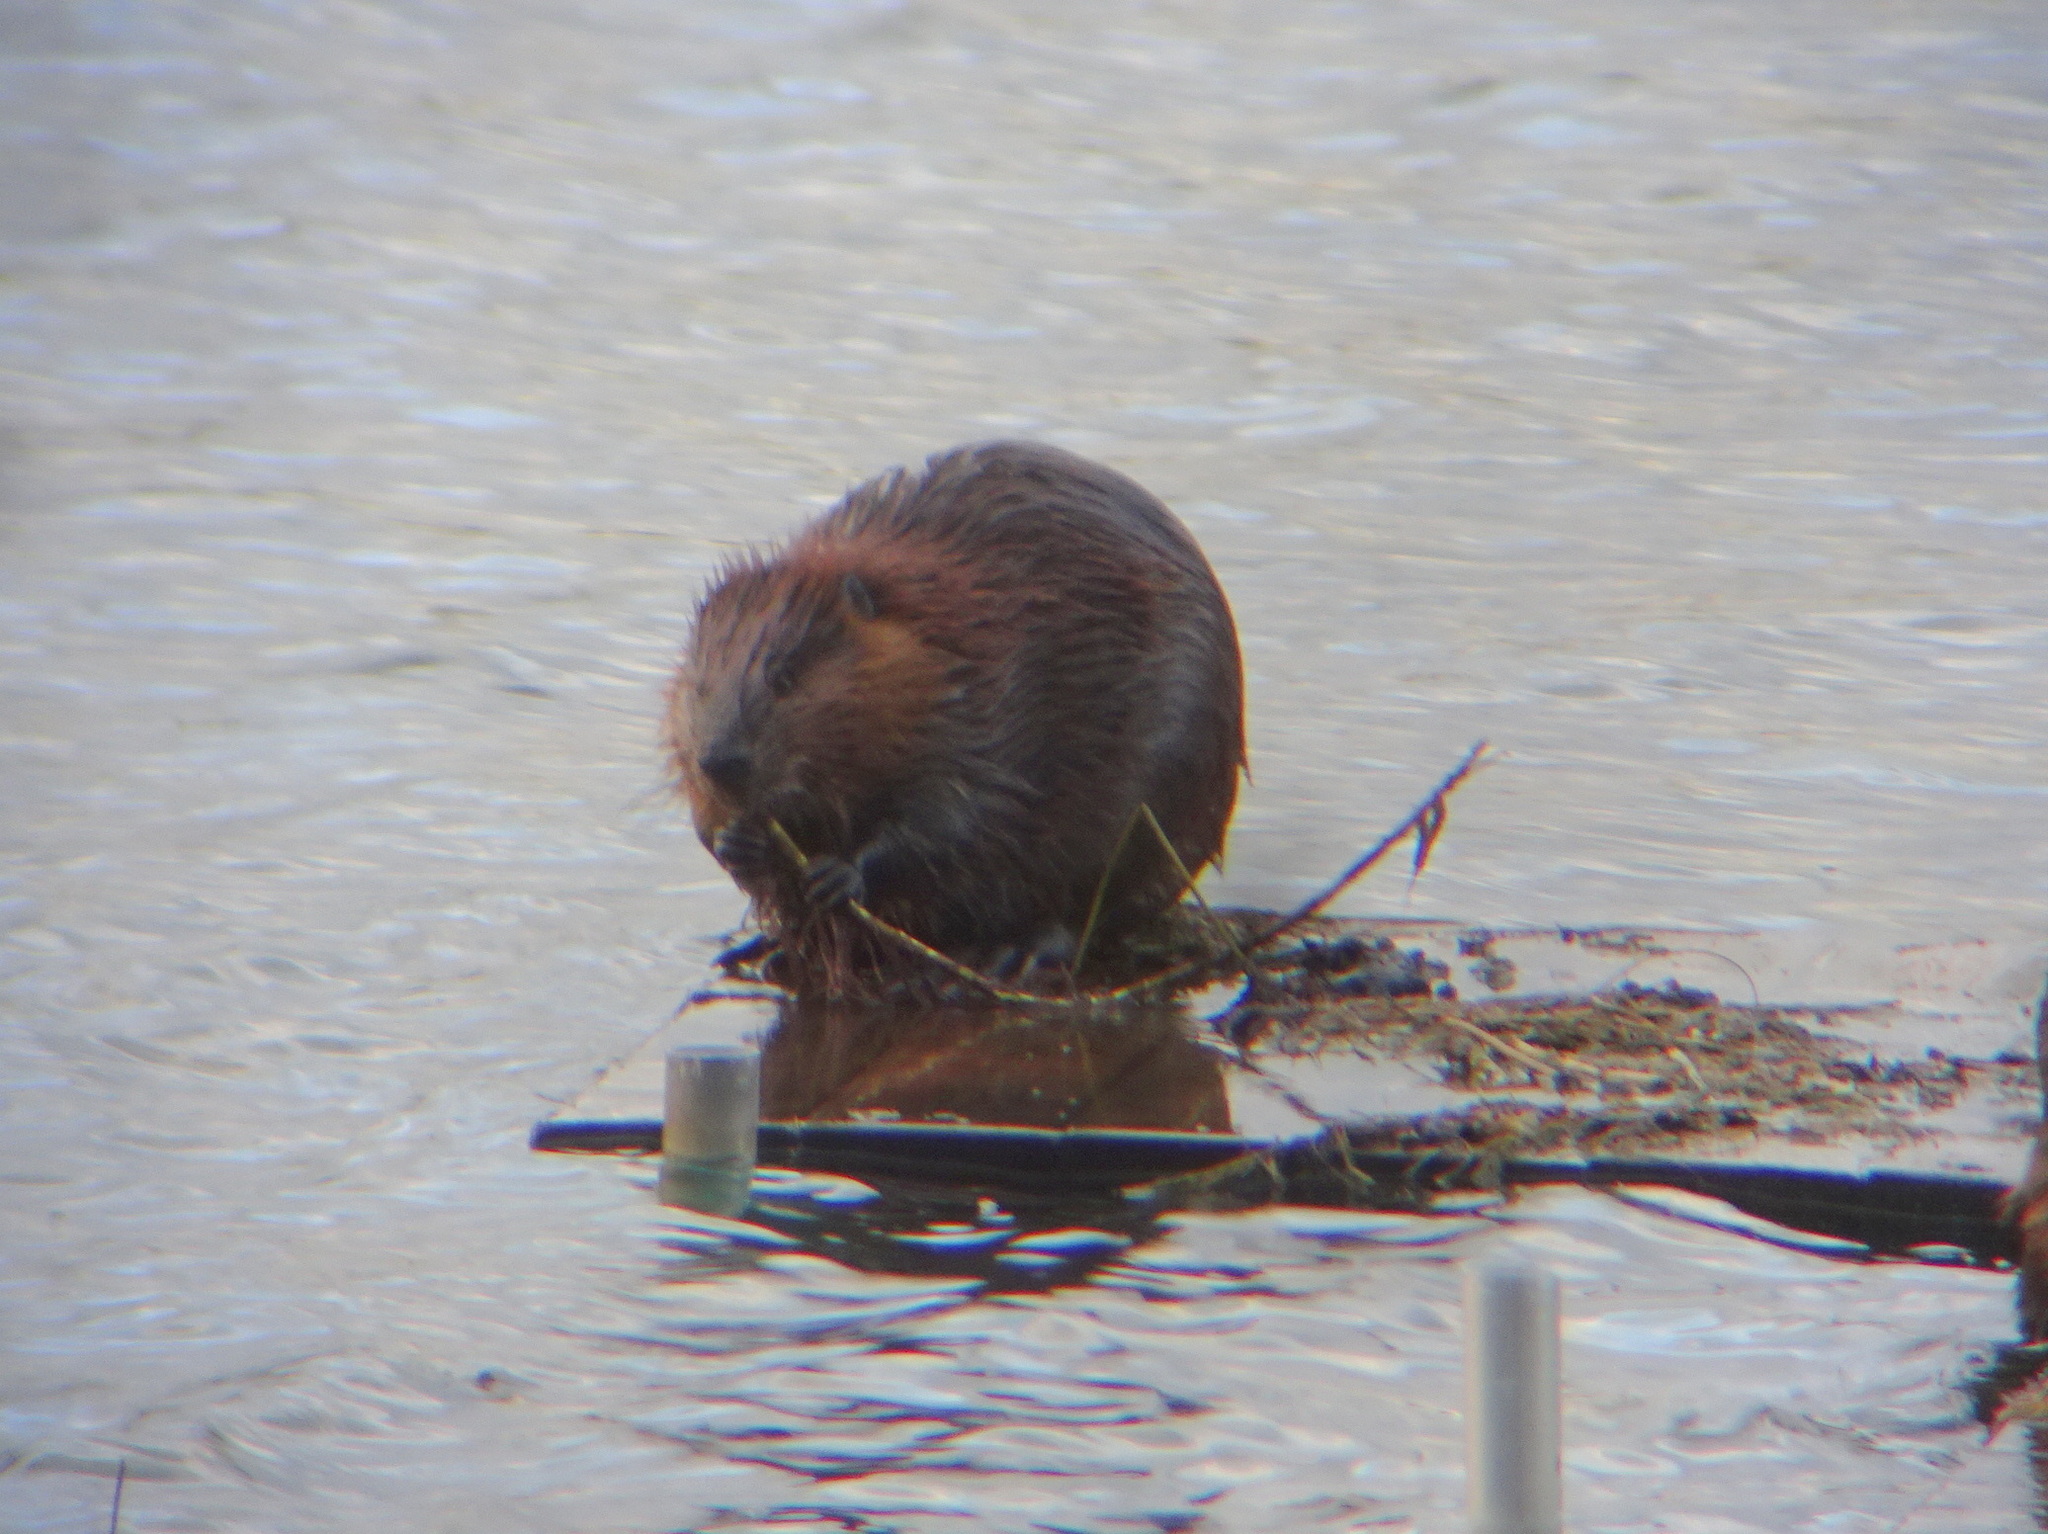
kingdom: Animalia
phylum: Chordata
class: Mammalia
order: Rodentia
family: Castoridae
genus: Castor
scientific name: Castor canadensis
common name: American beaver
